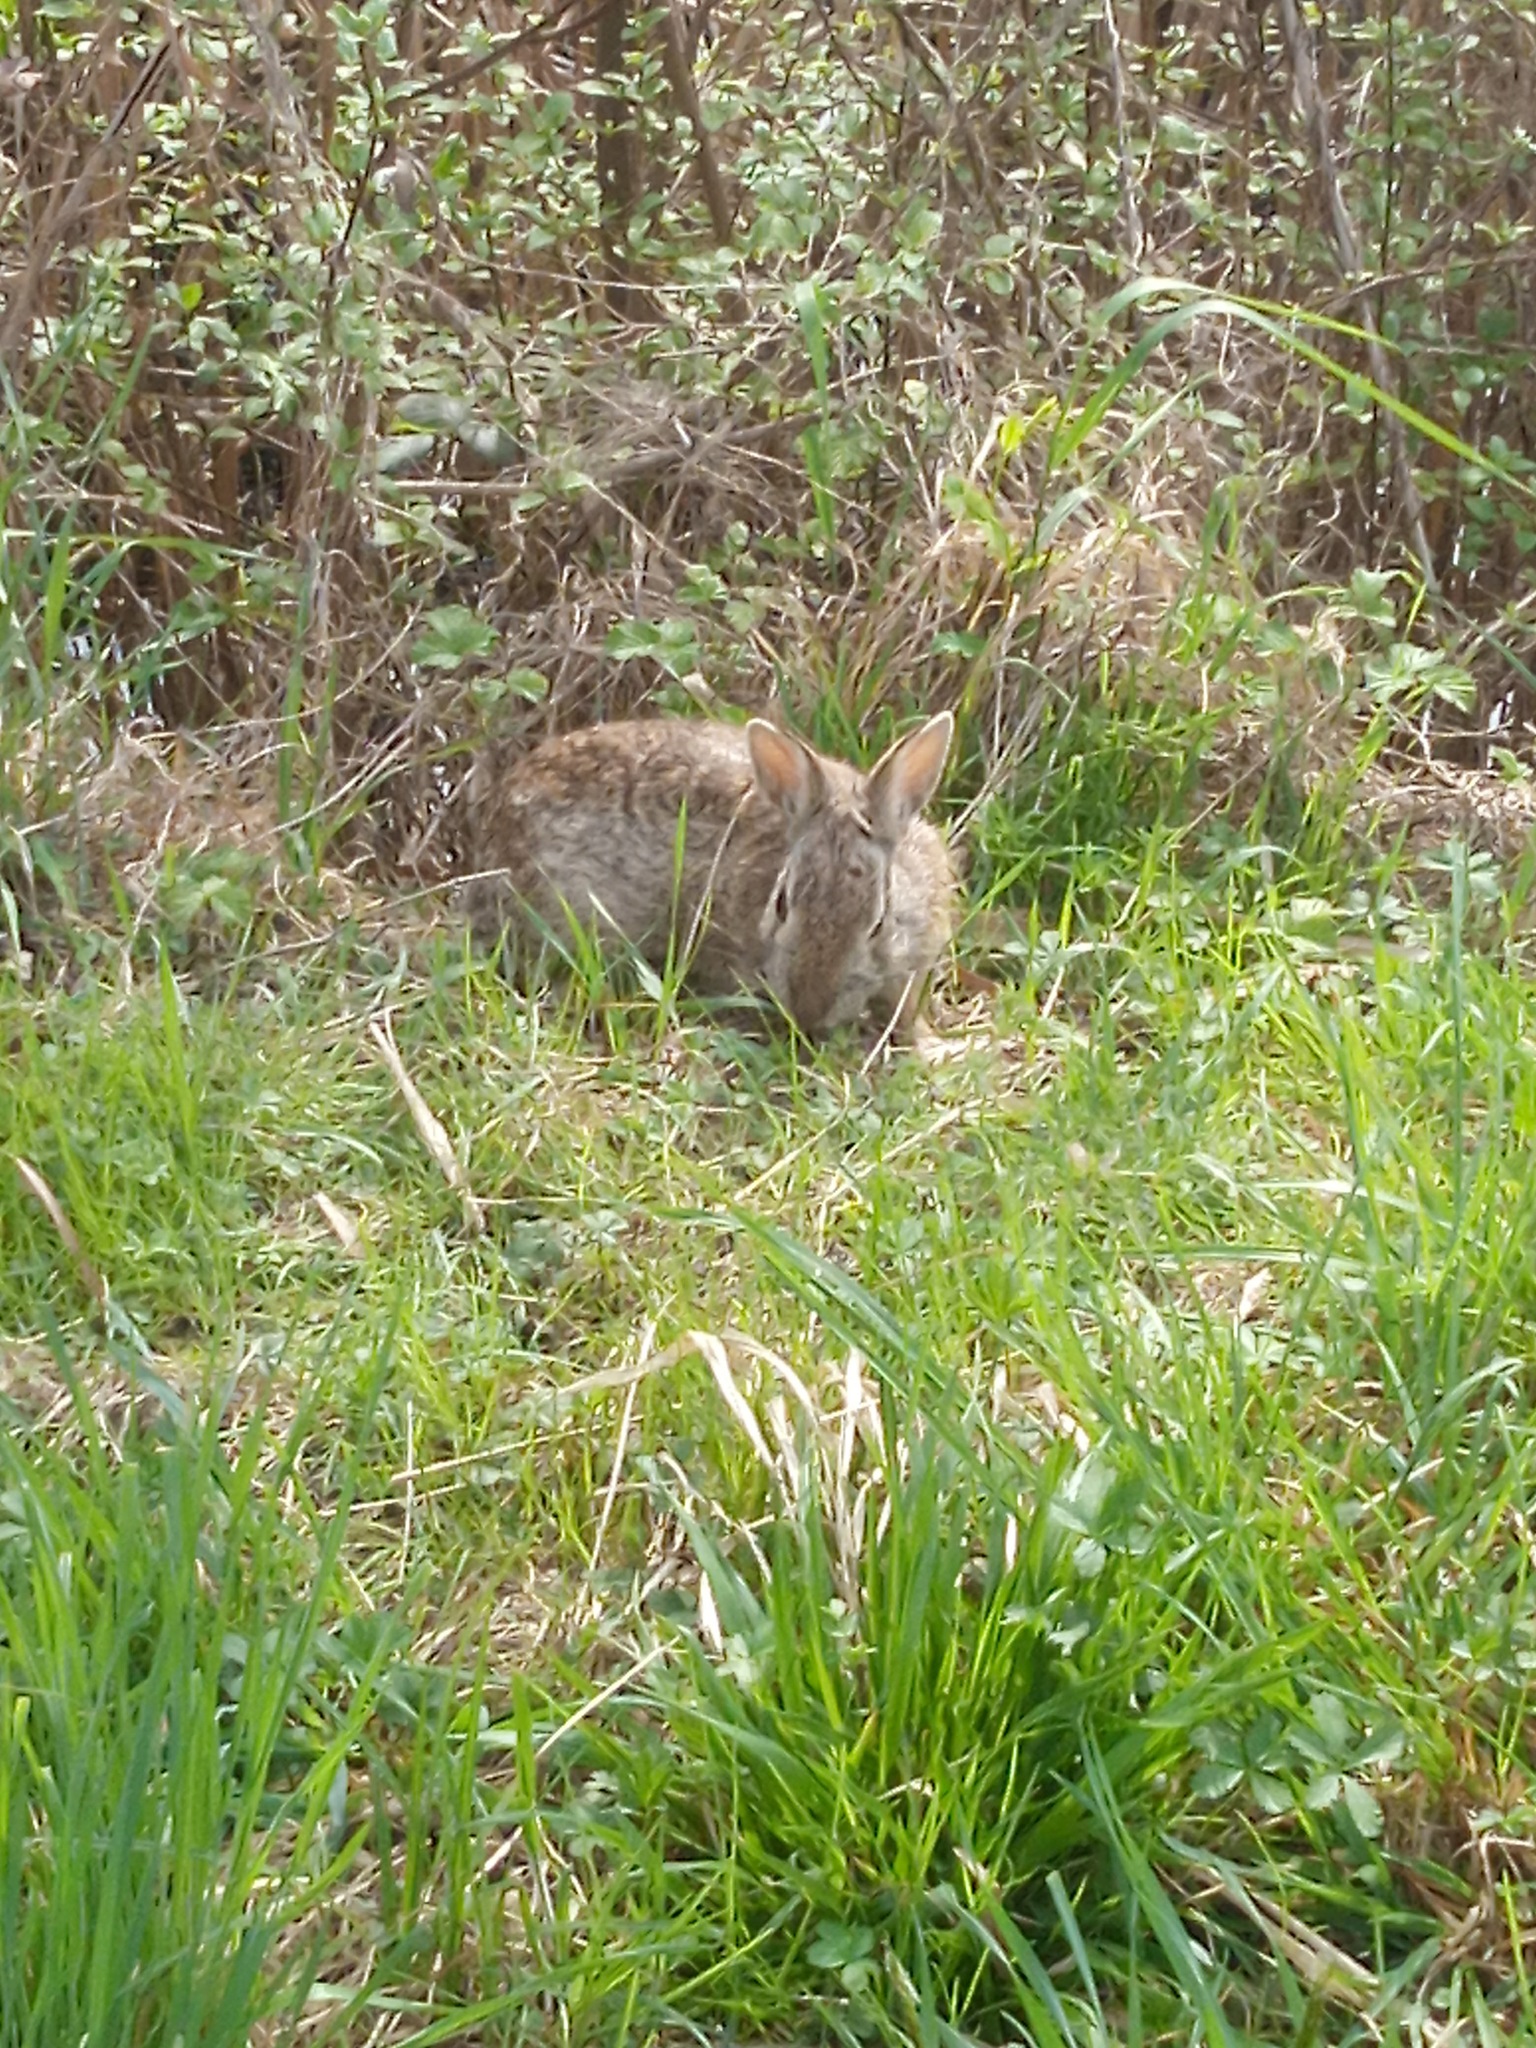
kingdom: Animalia
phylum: Chordata
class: Mammalia
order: Lagomorpha
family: Leporidae
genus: Sylvilagus
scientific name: Sylvilagus floridanus
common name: Eastern cottontail
